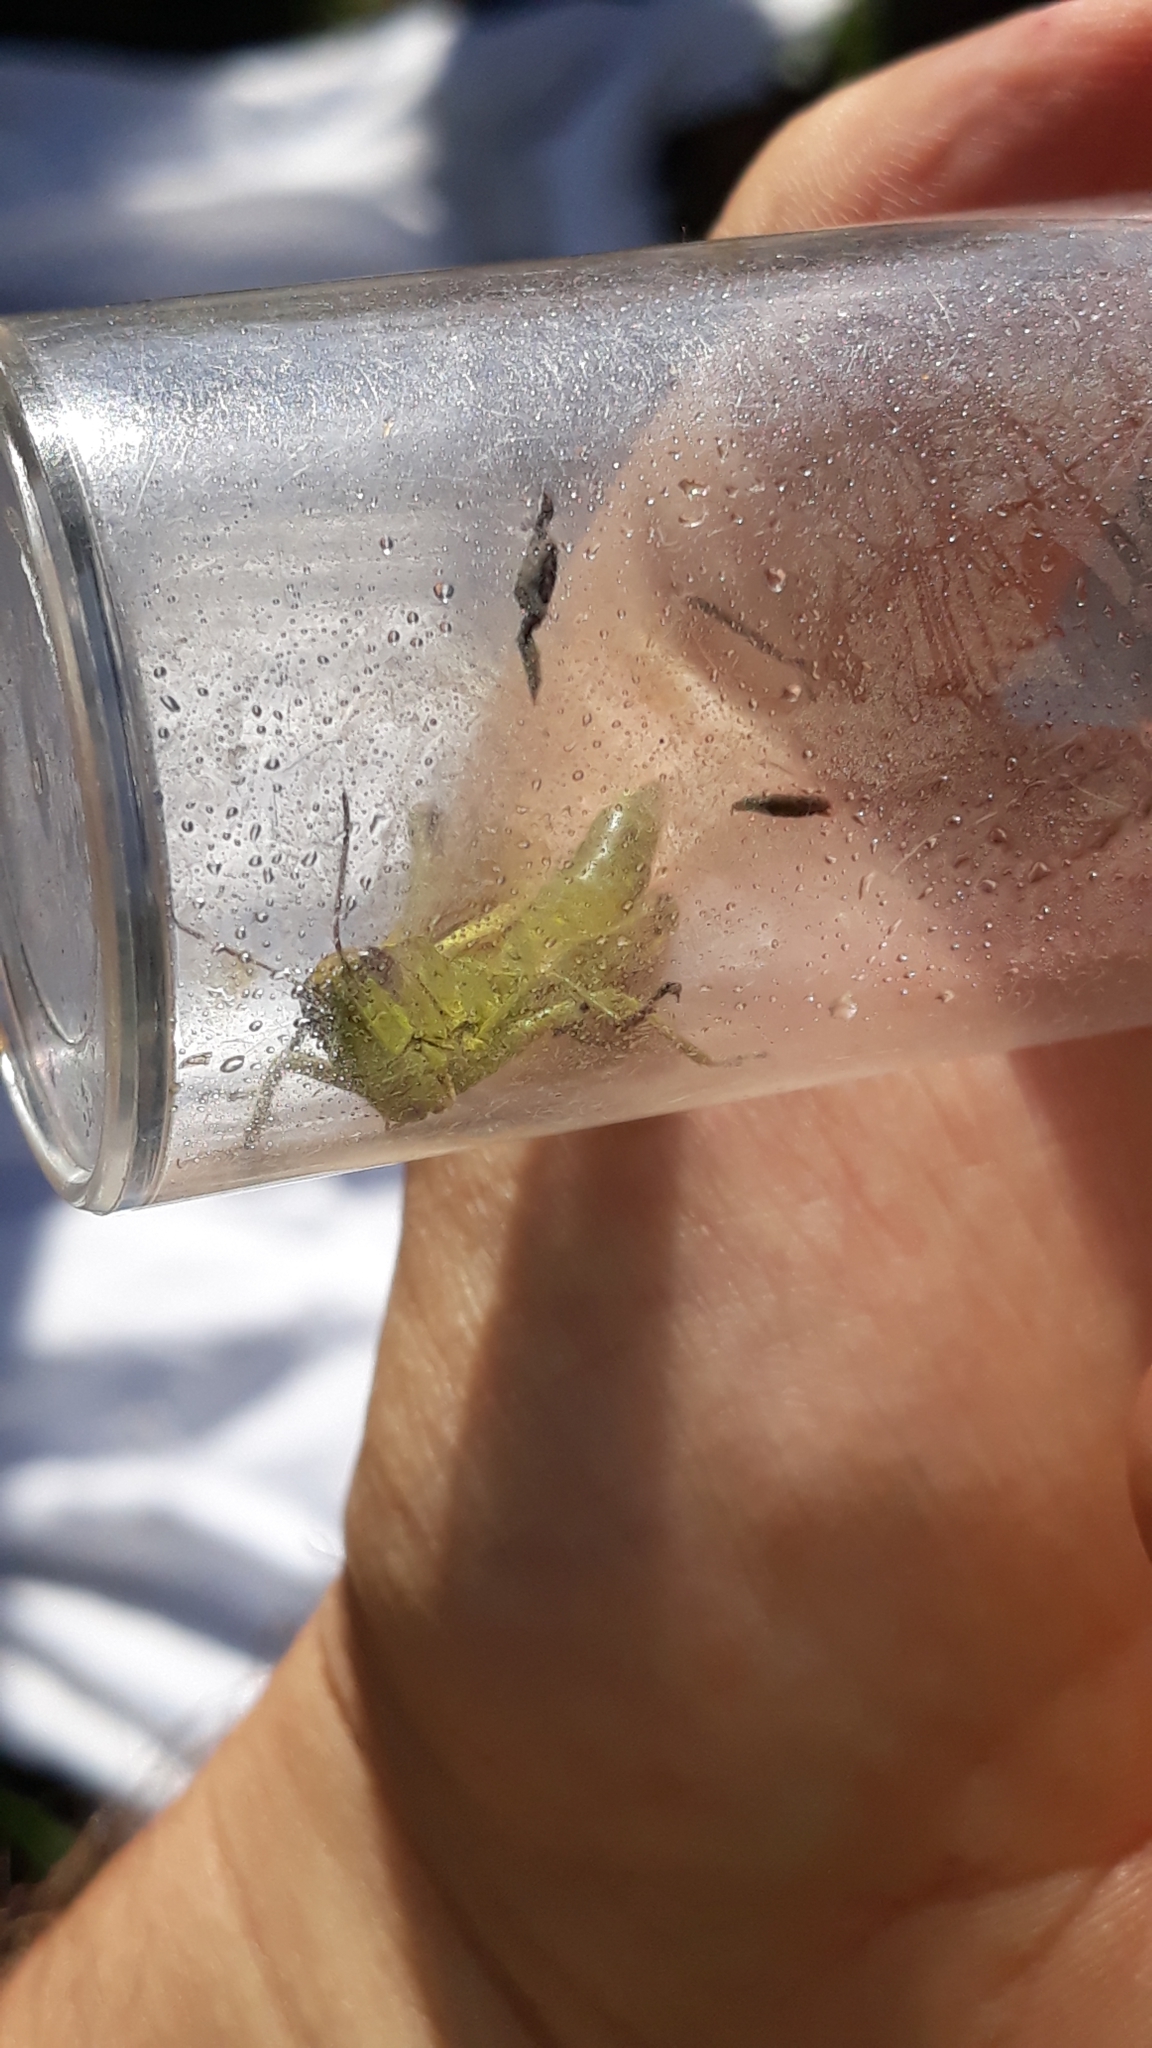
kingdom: Animalia
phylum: Arthropoda
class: Insecta
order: Orthoptera
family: Acrididae
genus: Stethophyma
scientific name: Stethophyma grossum
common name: Large marsh grasshopper
